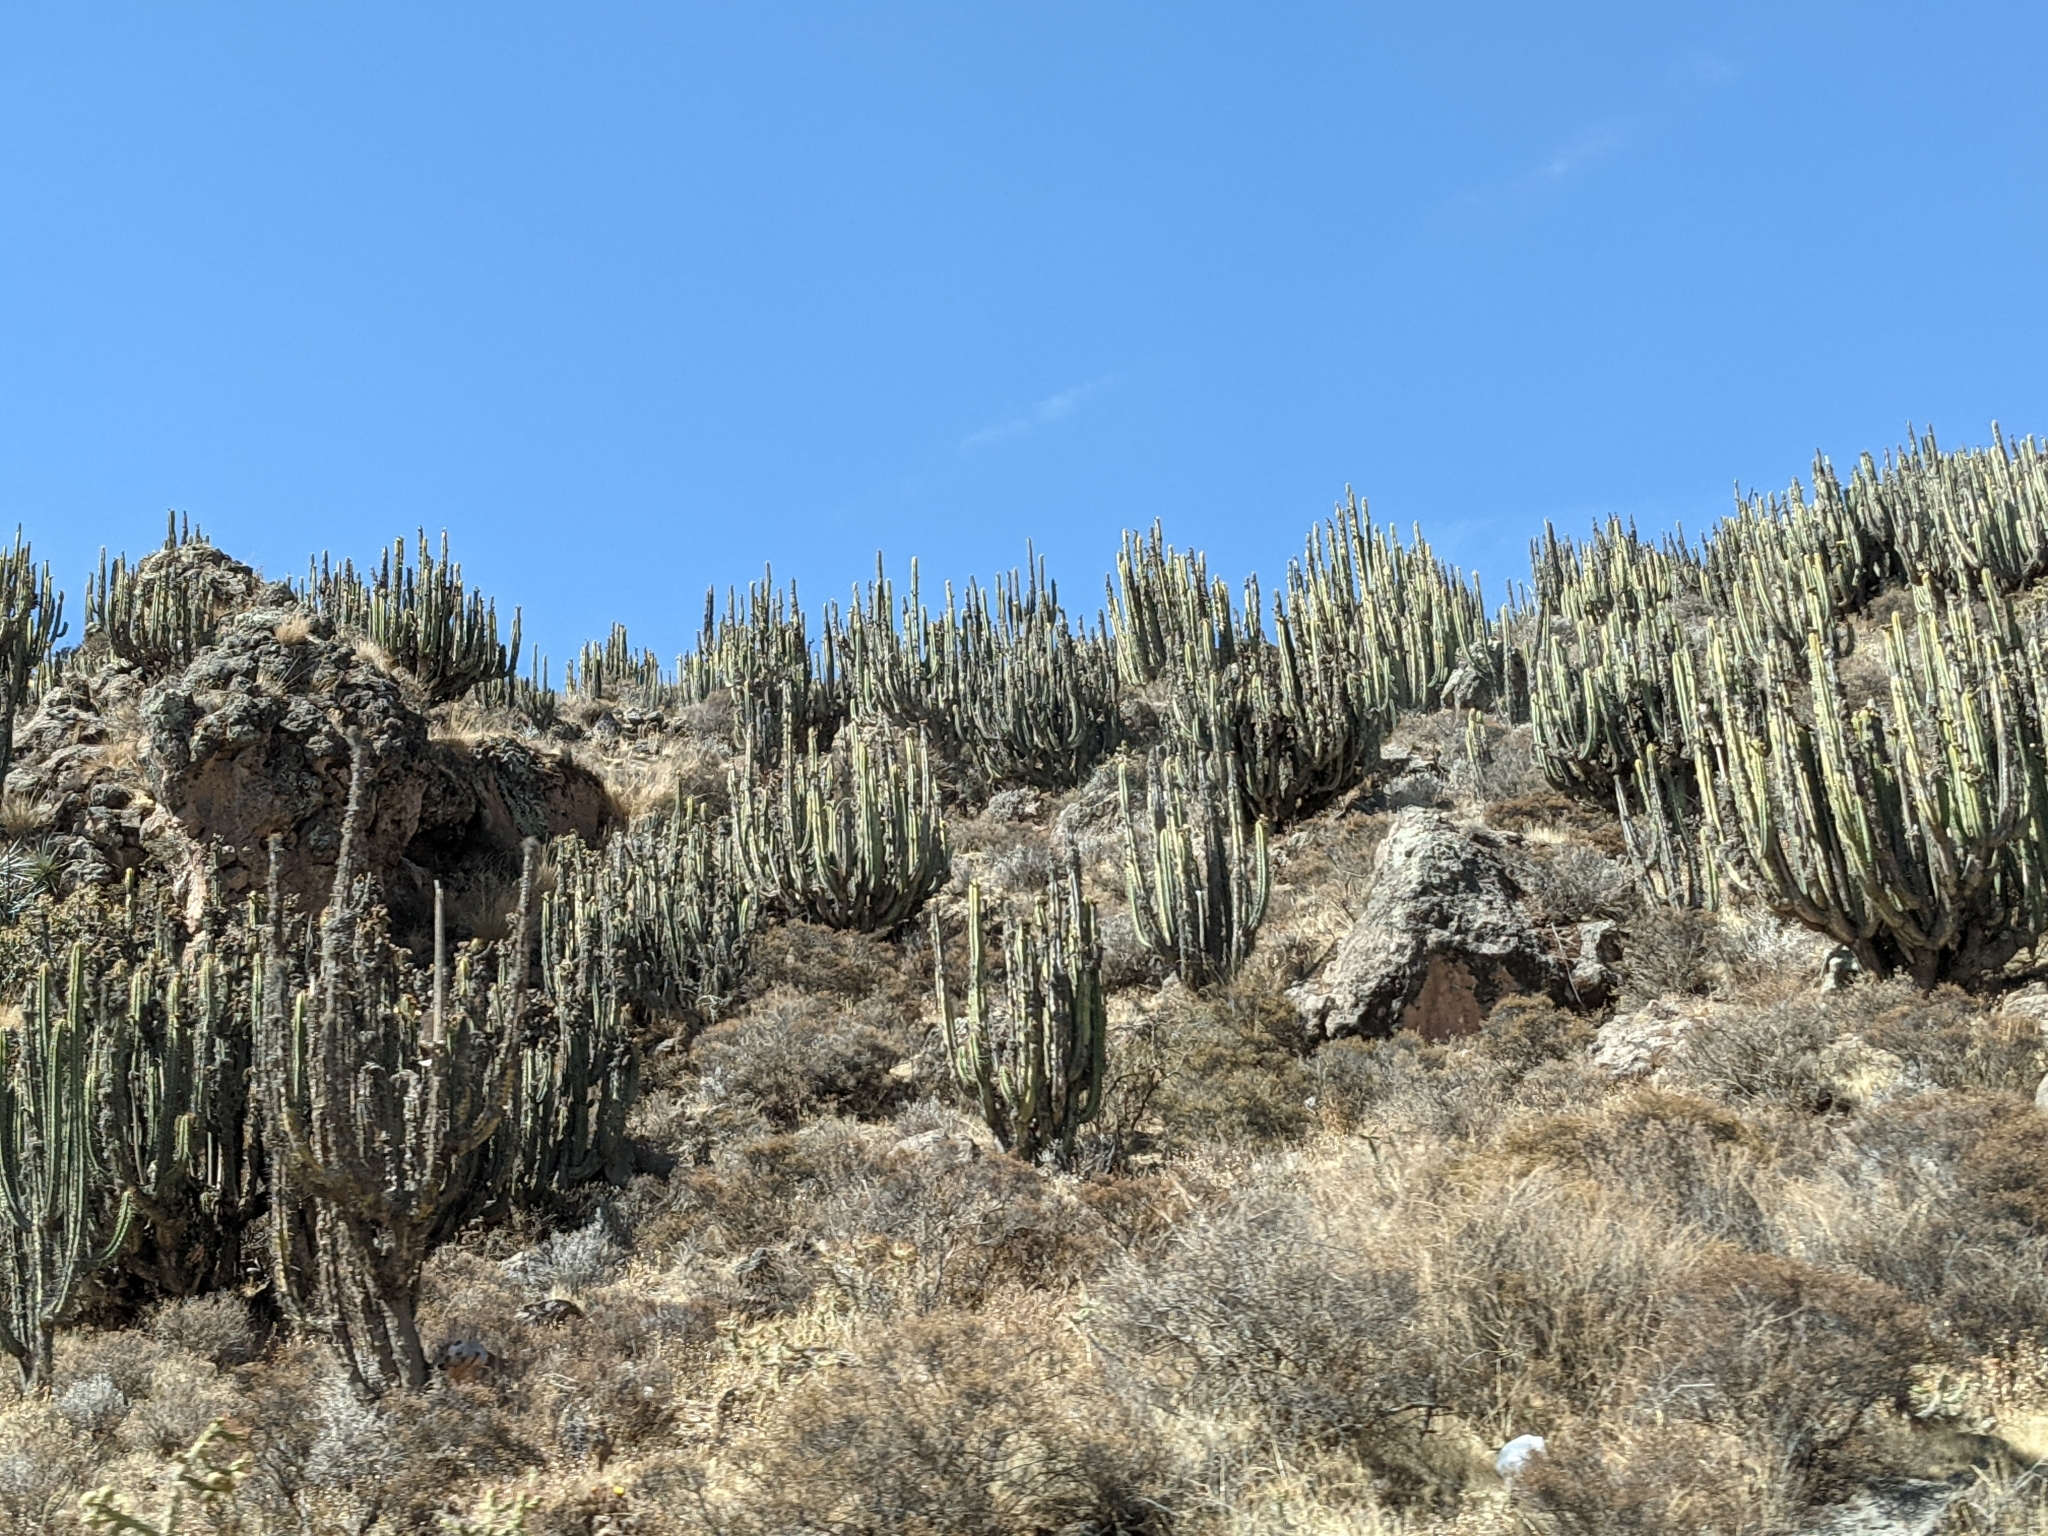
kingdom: Plantae
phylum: Tracheophyta
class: Magnoliopsida
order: Caryophyllales
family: Cactaceae
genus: Corryocactus
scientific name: Corryocactus brevistylus
